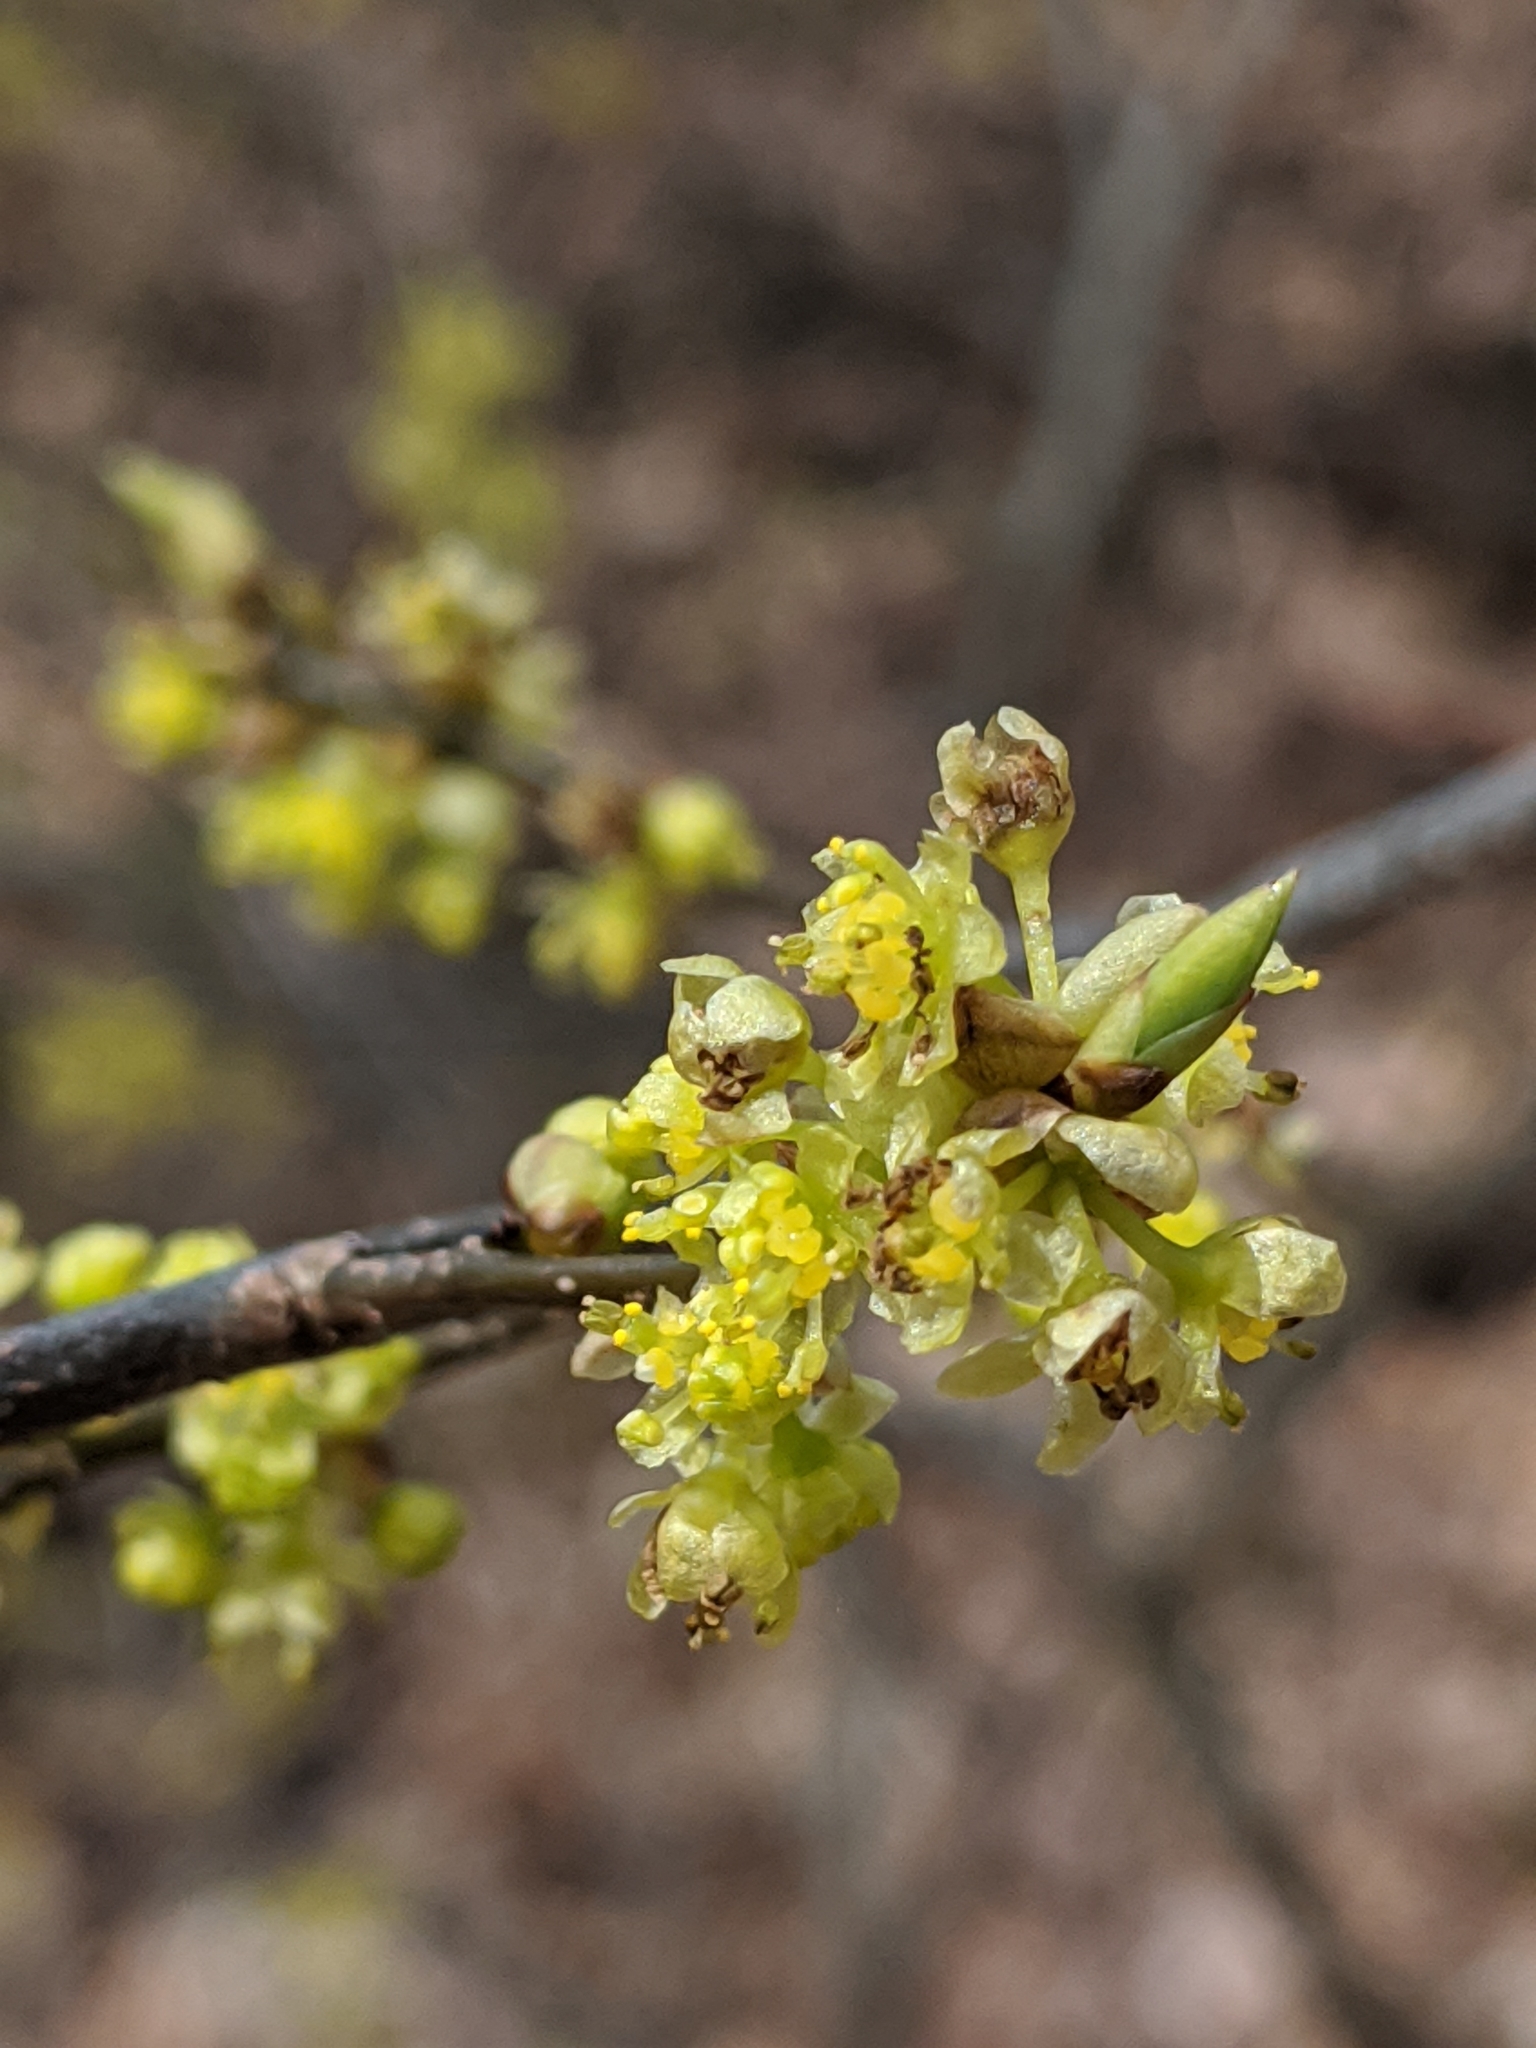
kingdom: Plantae
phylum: Tracheophyta
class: Magnoliopsida
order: Laurales
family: Lauraceae
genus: Lindera
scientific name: Lindera benzoin
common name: Spicebush
